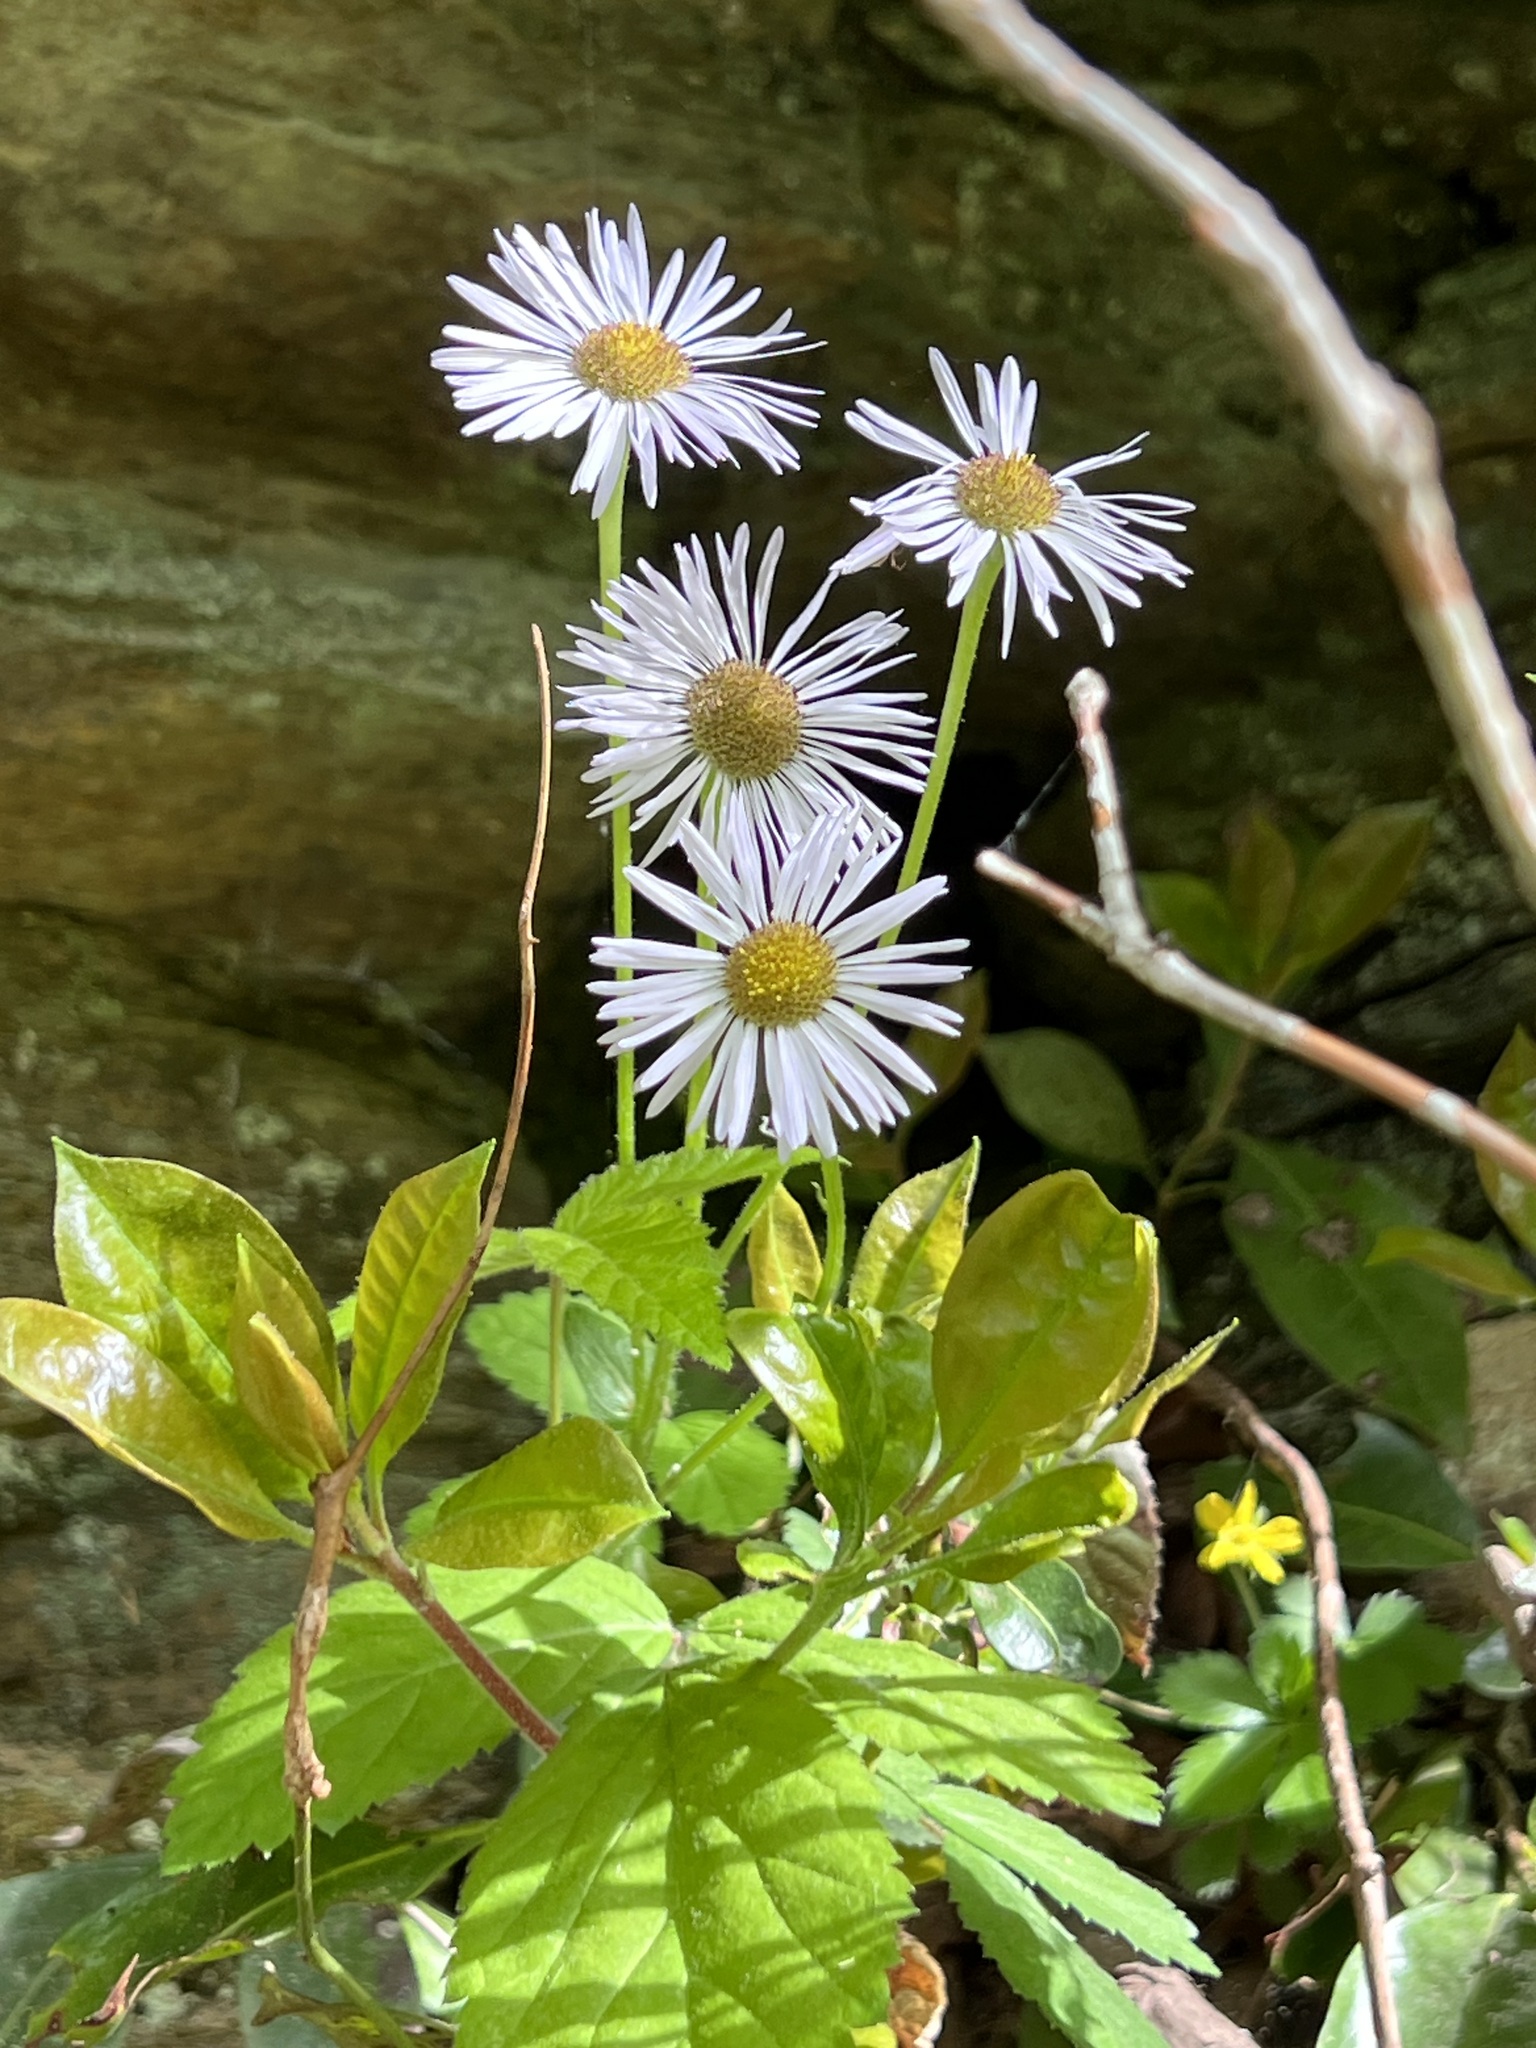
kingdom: Plantae
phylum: Tracheophyta
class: Magnoliopsida
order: Asterales
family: Asteraceae
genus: Erigeron
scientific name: Erigeron pulchellus
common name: Hairy fleabane
